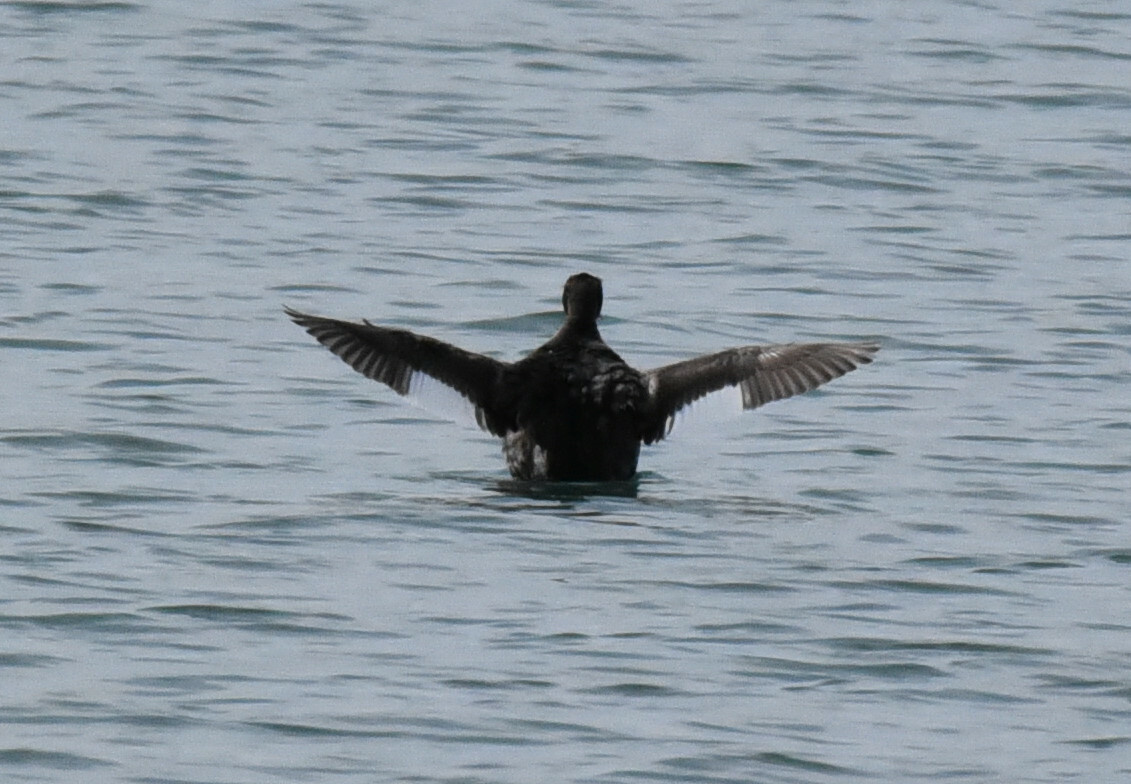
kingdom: Animalia
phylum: Chordata
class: Aves
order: Podicipediformes
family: Podicipedidae
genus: Podiceps
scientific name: Podiceps auritus
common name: Horned grebe
